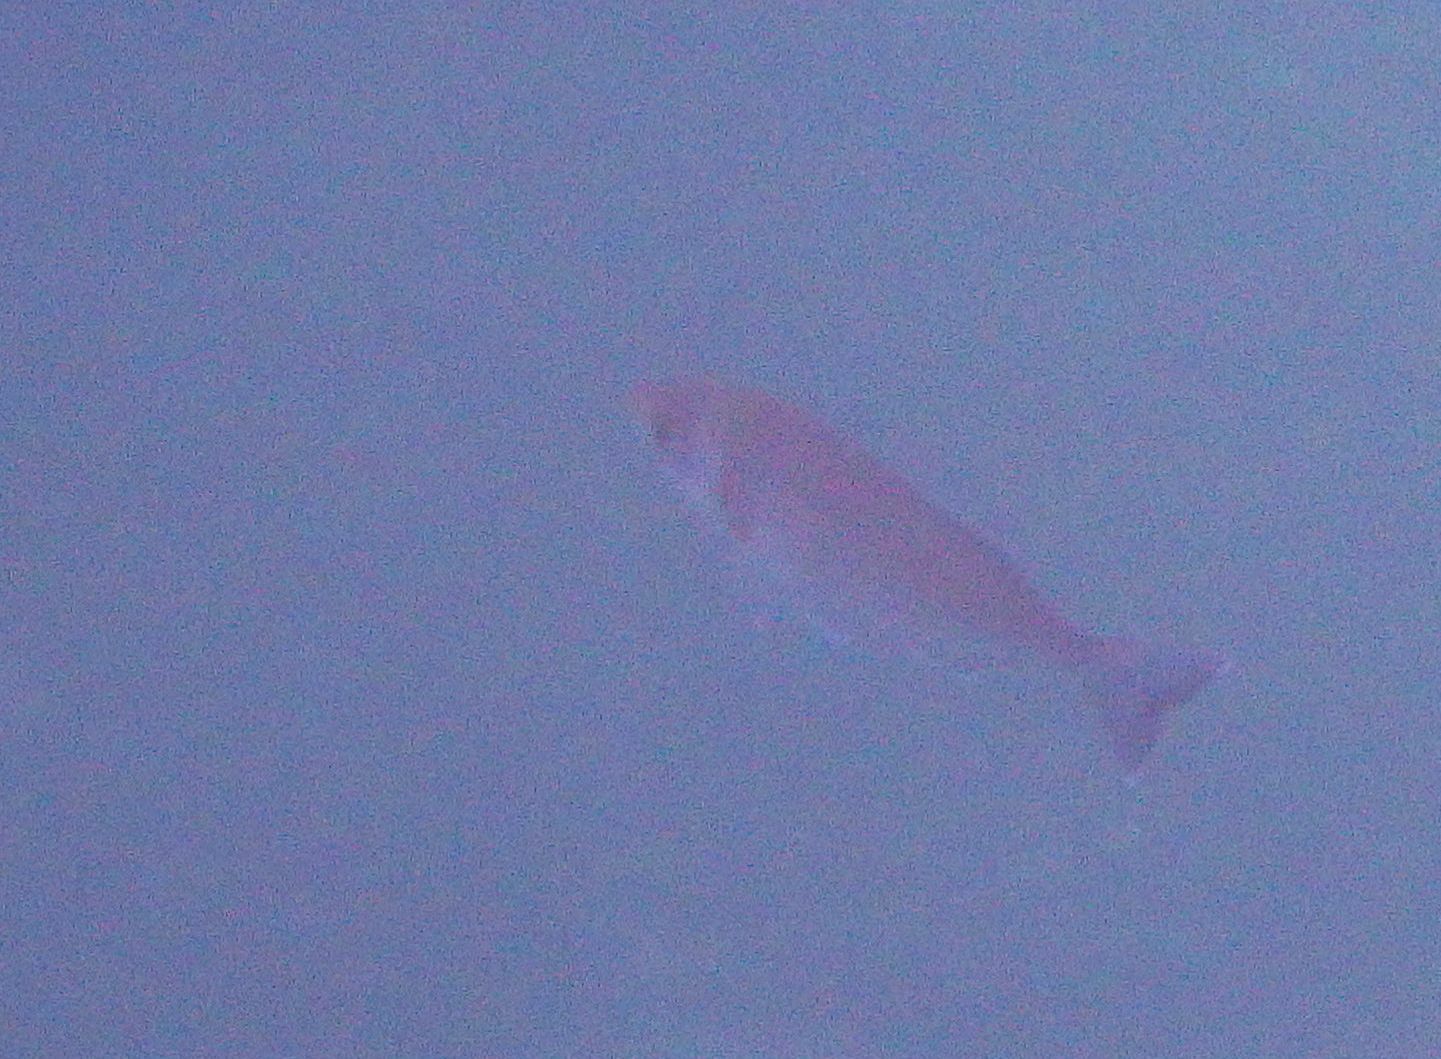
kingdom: Animalia
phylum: Chordata
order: Perciformes
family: Sparidae
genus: Spondyliosoma
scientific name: Spondyliosoma cantharus
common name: Black seabream
